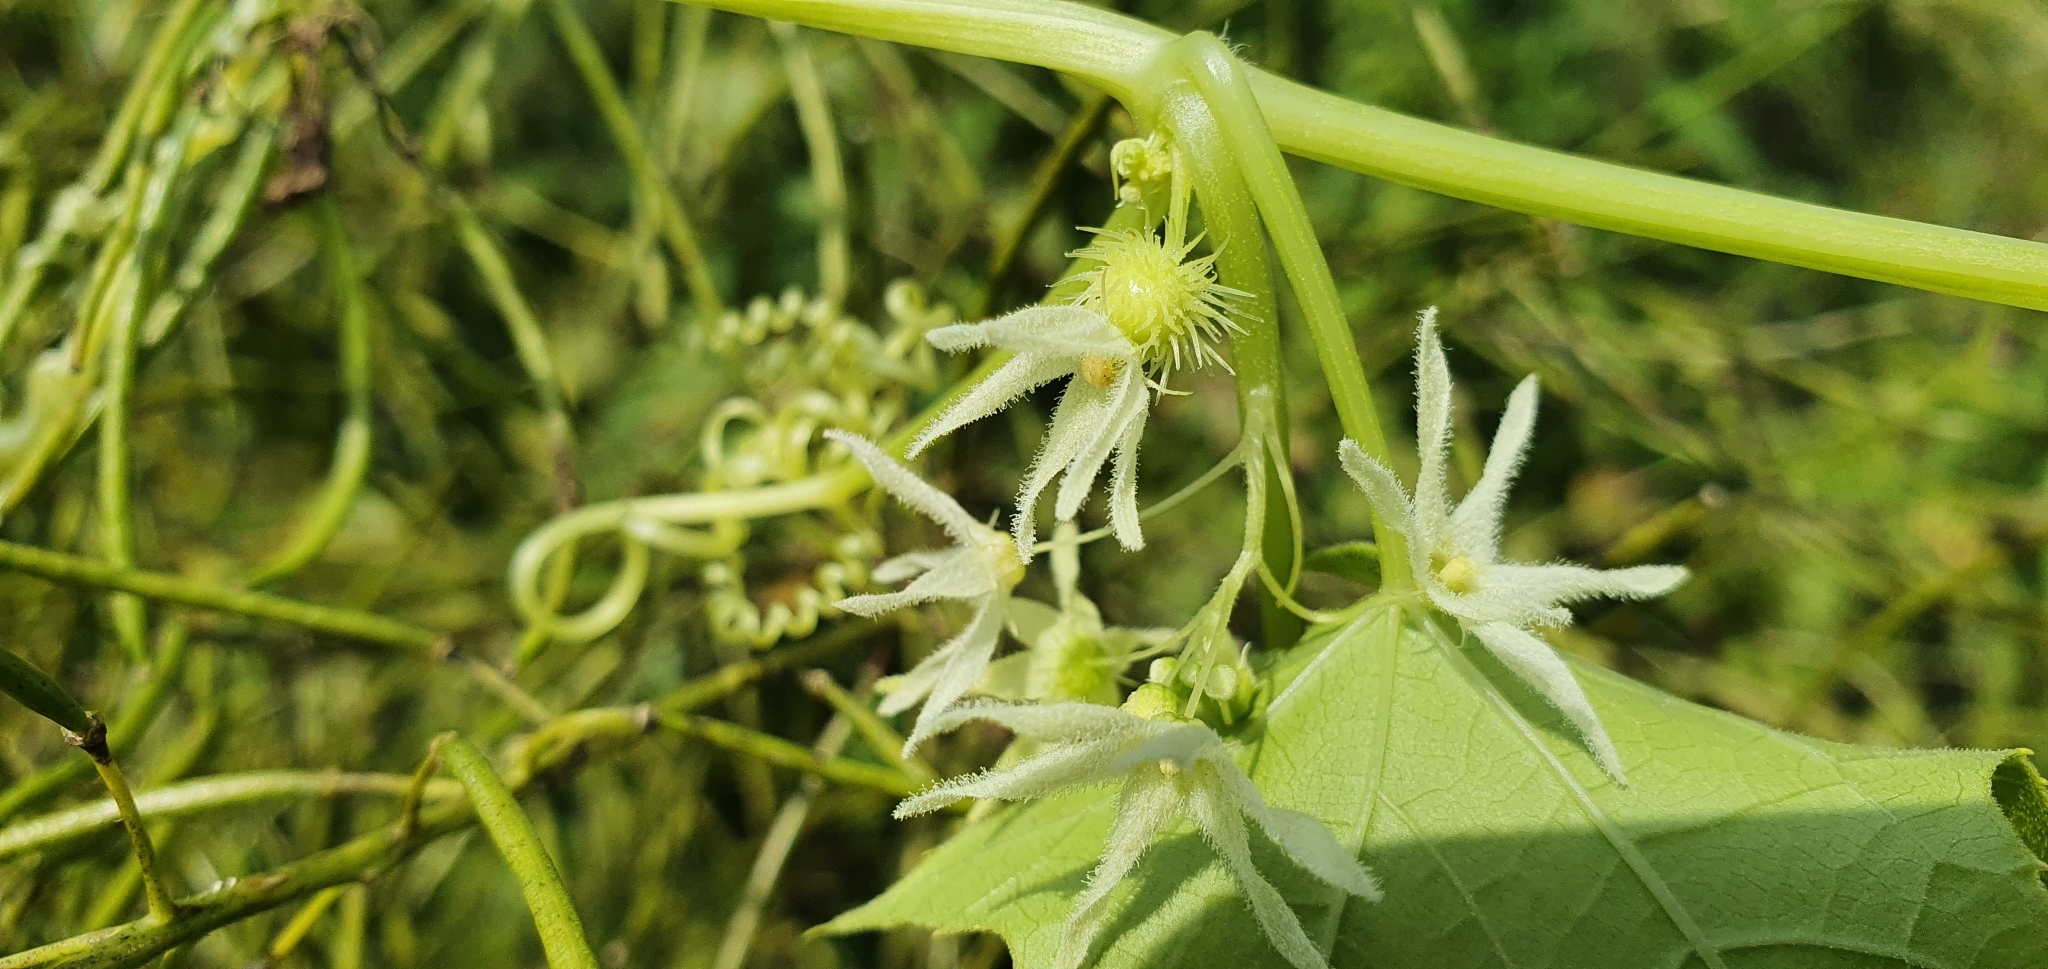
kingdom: Plantae
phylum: Tracheophyta
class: Magnoliopsida
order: Cucurbitales
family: Cucurbitaceae
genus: Echinocystis
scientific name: Echinocystis lobata
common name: Wild cucumber
